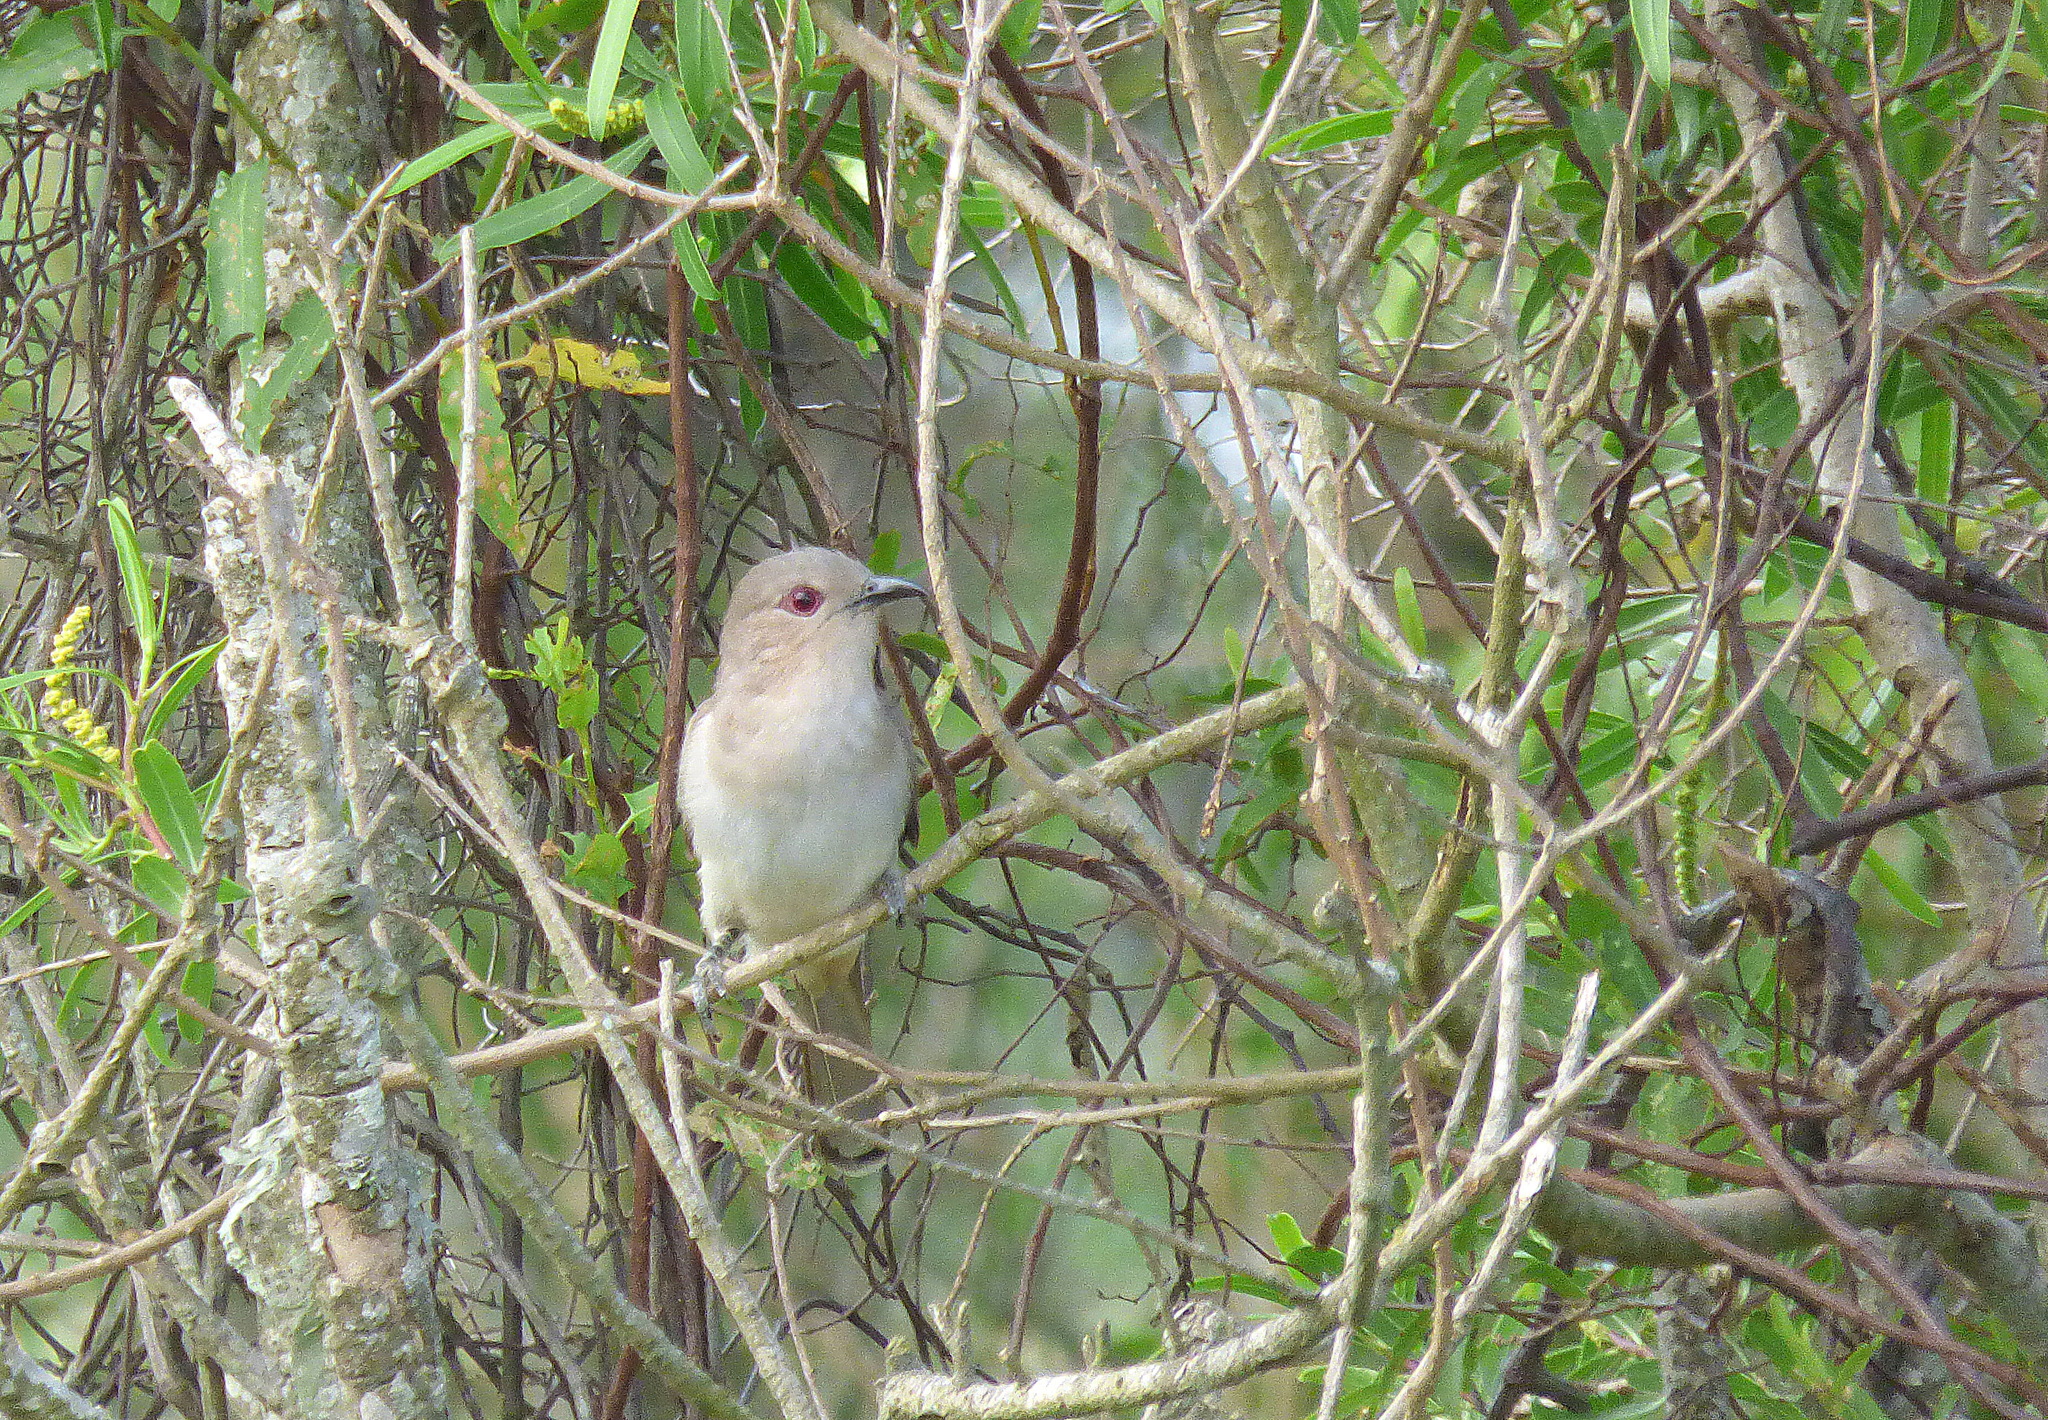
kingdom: Animalia
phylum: Chordata
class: Aves
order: Cuculiformes
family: Cuculidae
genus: Coccyzus
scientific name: Coccyzus cinereus
